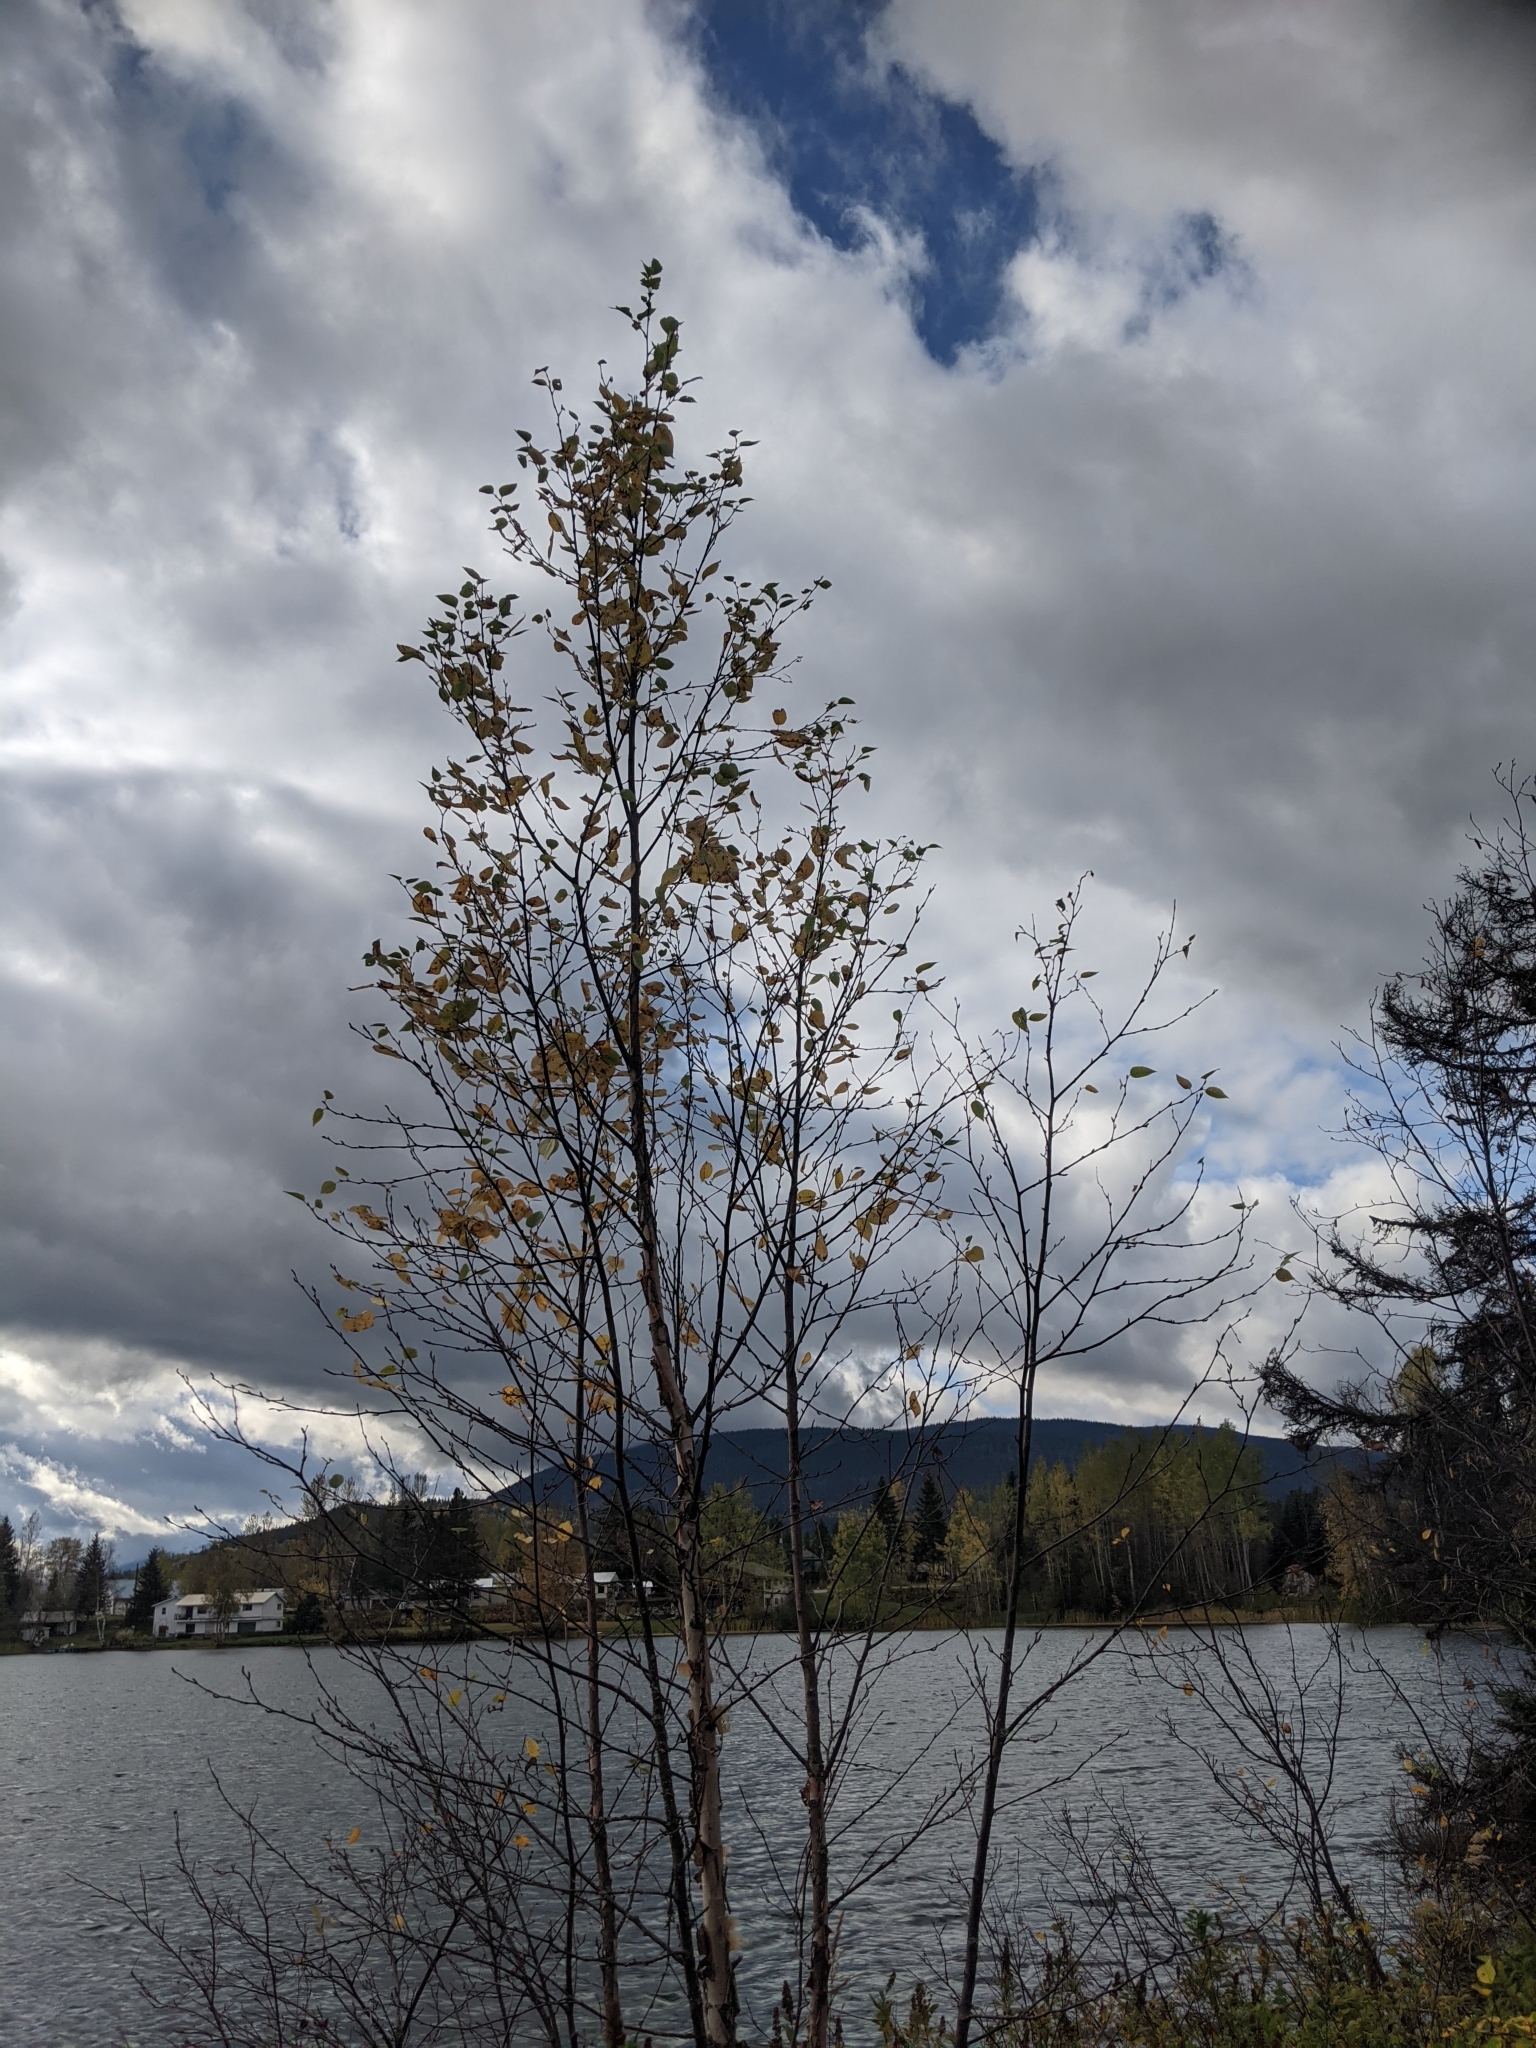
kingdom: Plantae
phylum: Tracheophyta
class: Magnoliopsida
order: Fagales
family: Betulaceae
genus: Betula
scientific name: Betula papyrifera
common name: Paper birch
